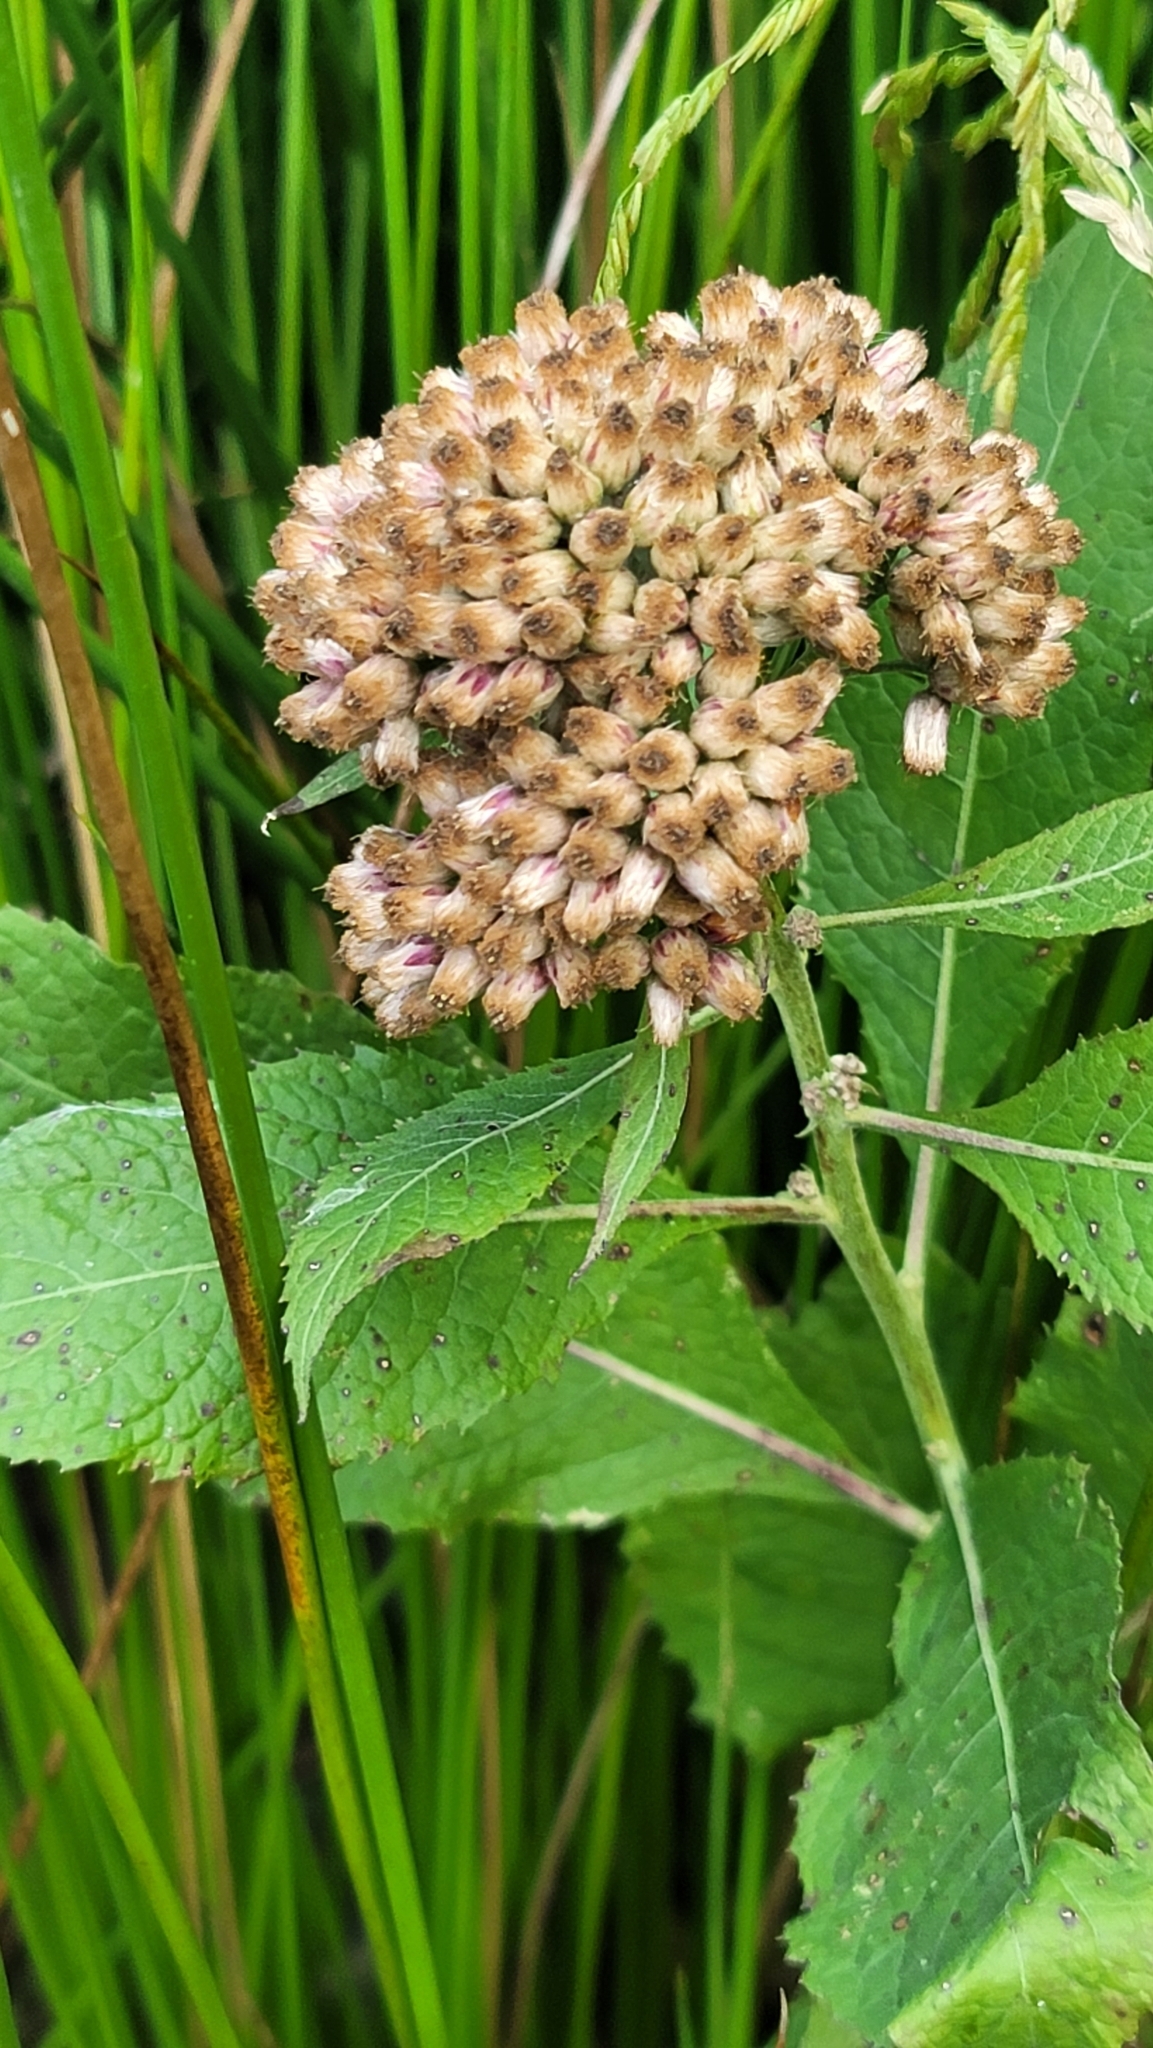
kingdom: Plantae
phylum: Tracheophyta
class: Magnoliopsida
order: Asterales
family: Asteraceae
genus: Pluchea
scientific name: Pluchea camphorata
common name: Camphor pluchea
